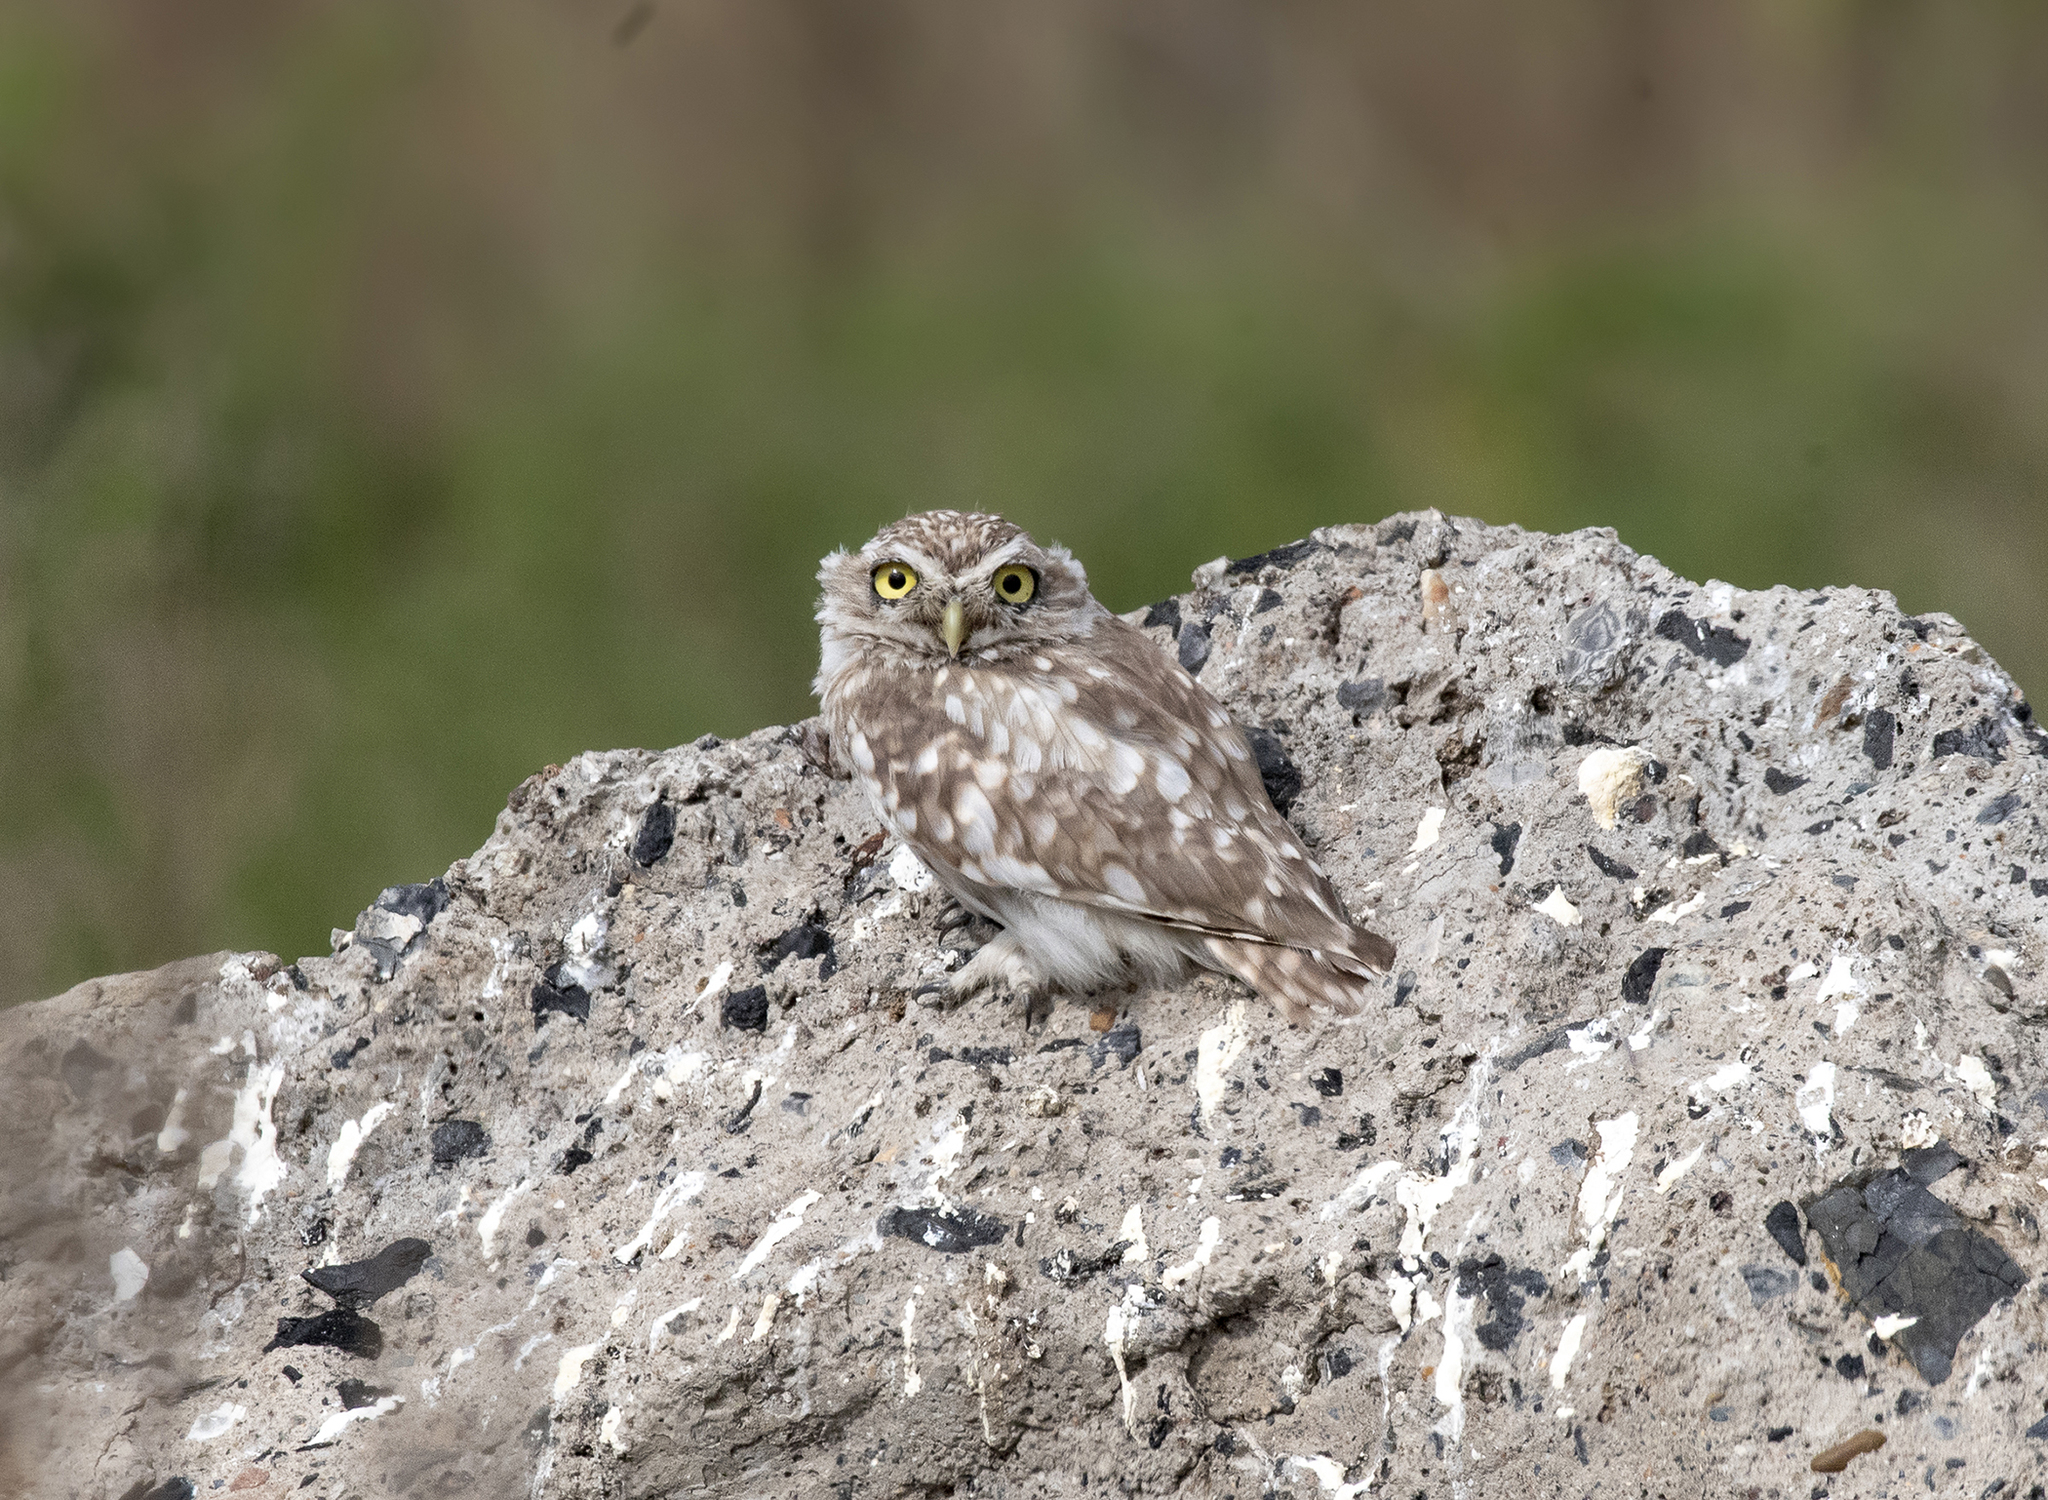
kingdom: Animalia
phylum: Chordata
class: Aves
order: Strigiformes
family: Strigidae
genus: Athene
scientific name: Athene noctua
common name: Little owl
